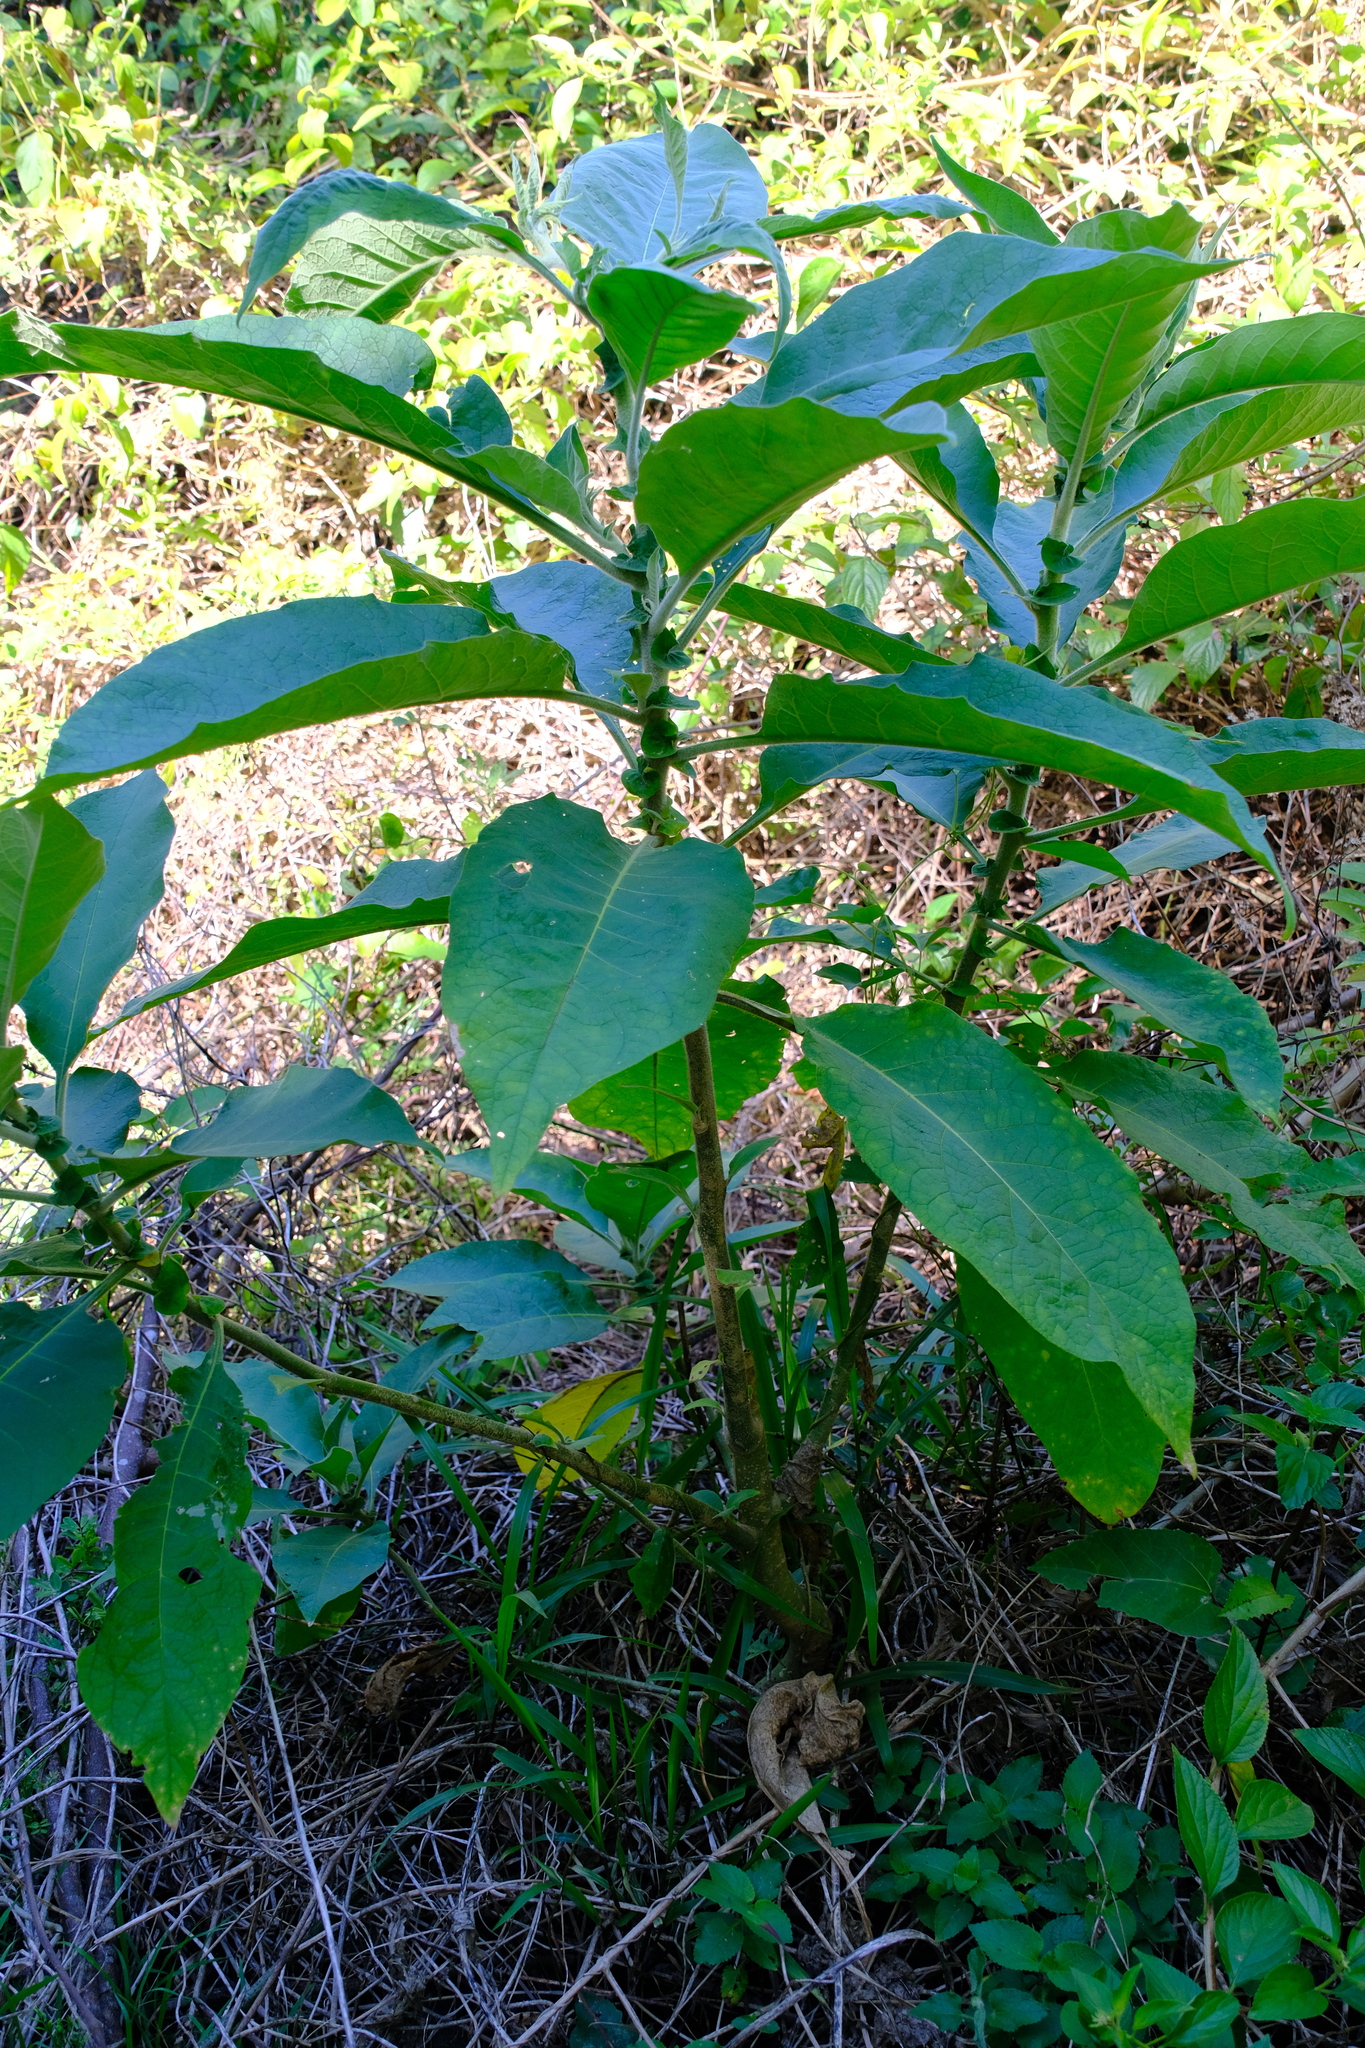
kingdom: Plantae
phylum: Tracheophyta
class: Magnoliopsida
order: Solanales
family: Solanaceae
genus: Solanum
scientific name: Solanum mauritianum
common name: Earleaf nightshade
